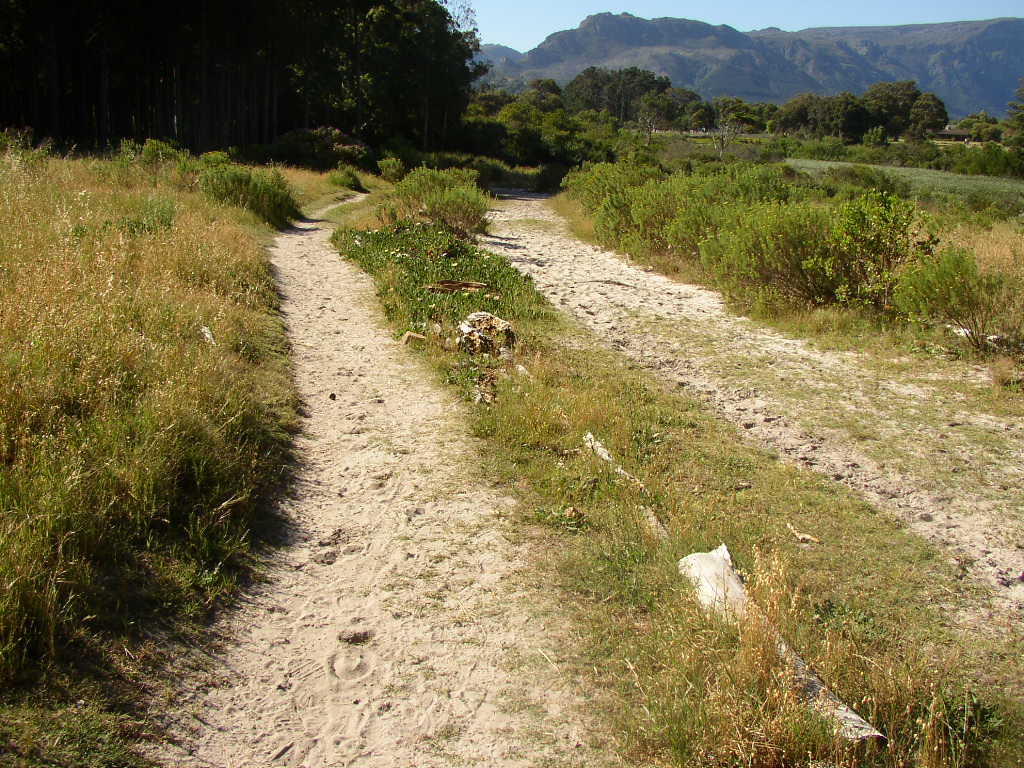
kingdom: Plantae
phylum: Tracheophyta
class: Magnoliopsida
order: Caryophyllales
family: Aizoaceae
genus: Carpobrotus
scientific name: Carpobrotus edulis
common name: Hottentot-fig
